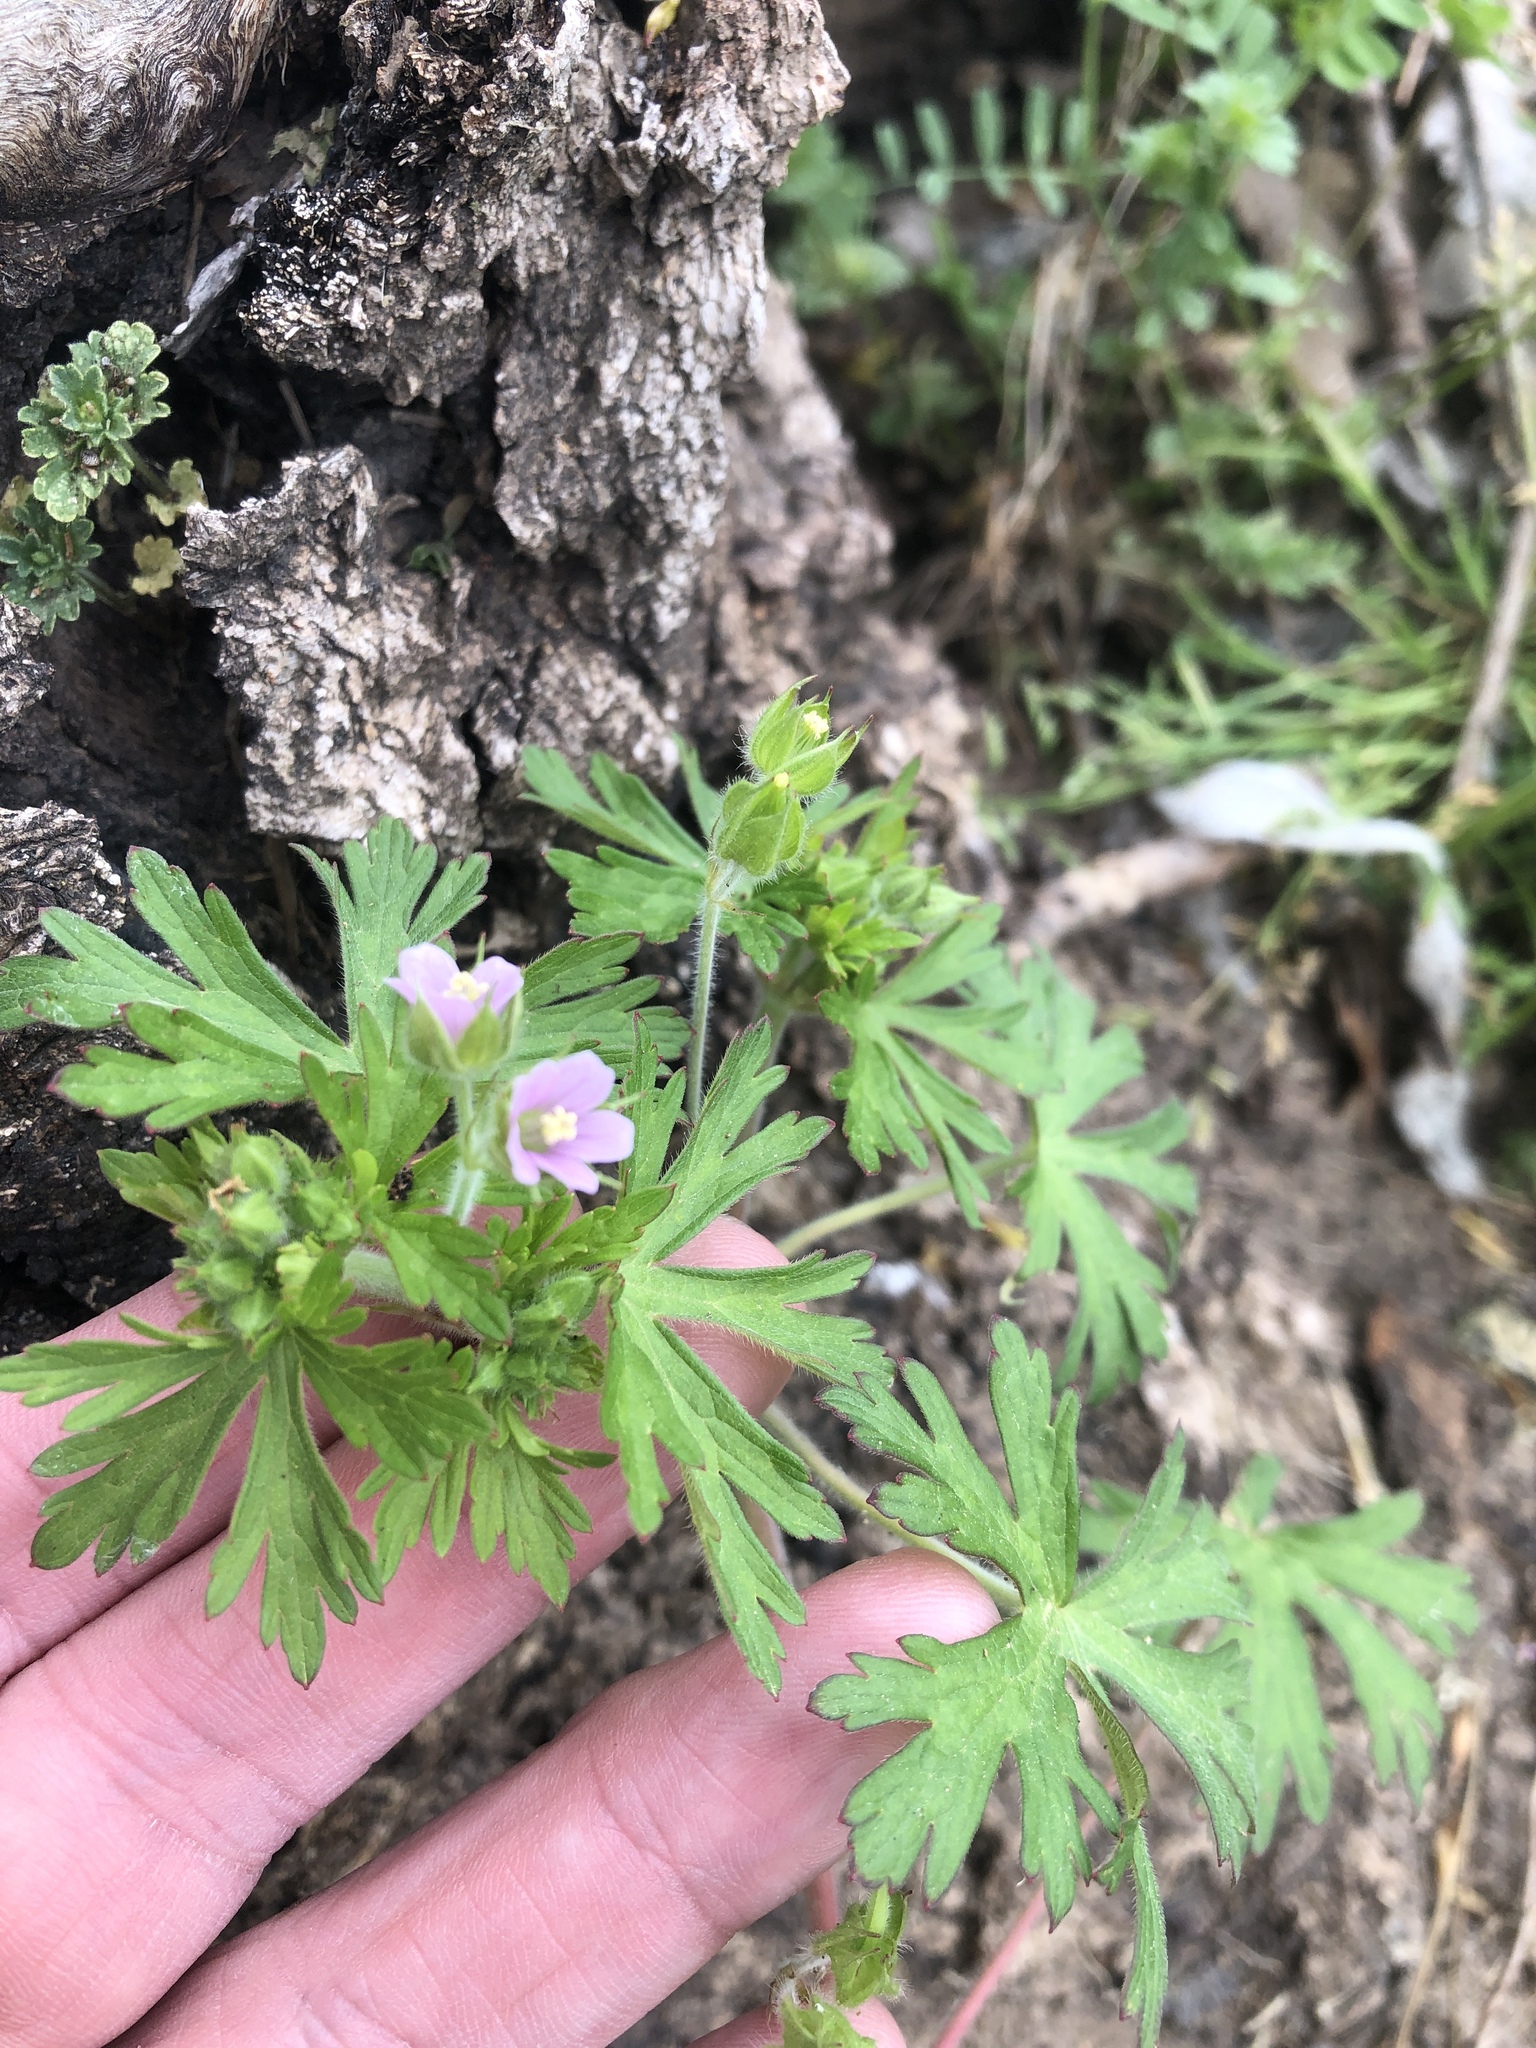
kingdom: Plantae
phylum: Tracheophyta
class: Magnoliopsida
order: Geraniales
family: Geraniaceae
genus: Geranium
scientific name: Geranium carolinianum
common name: Carolina crane's-bill
